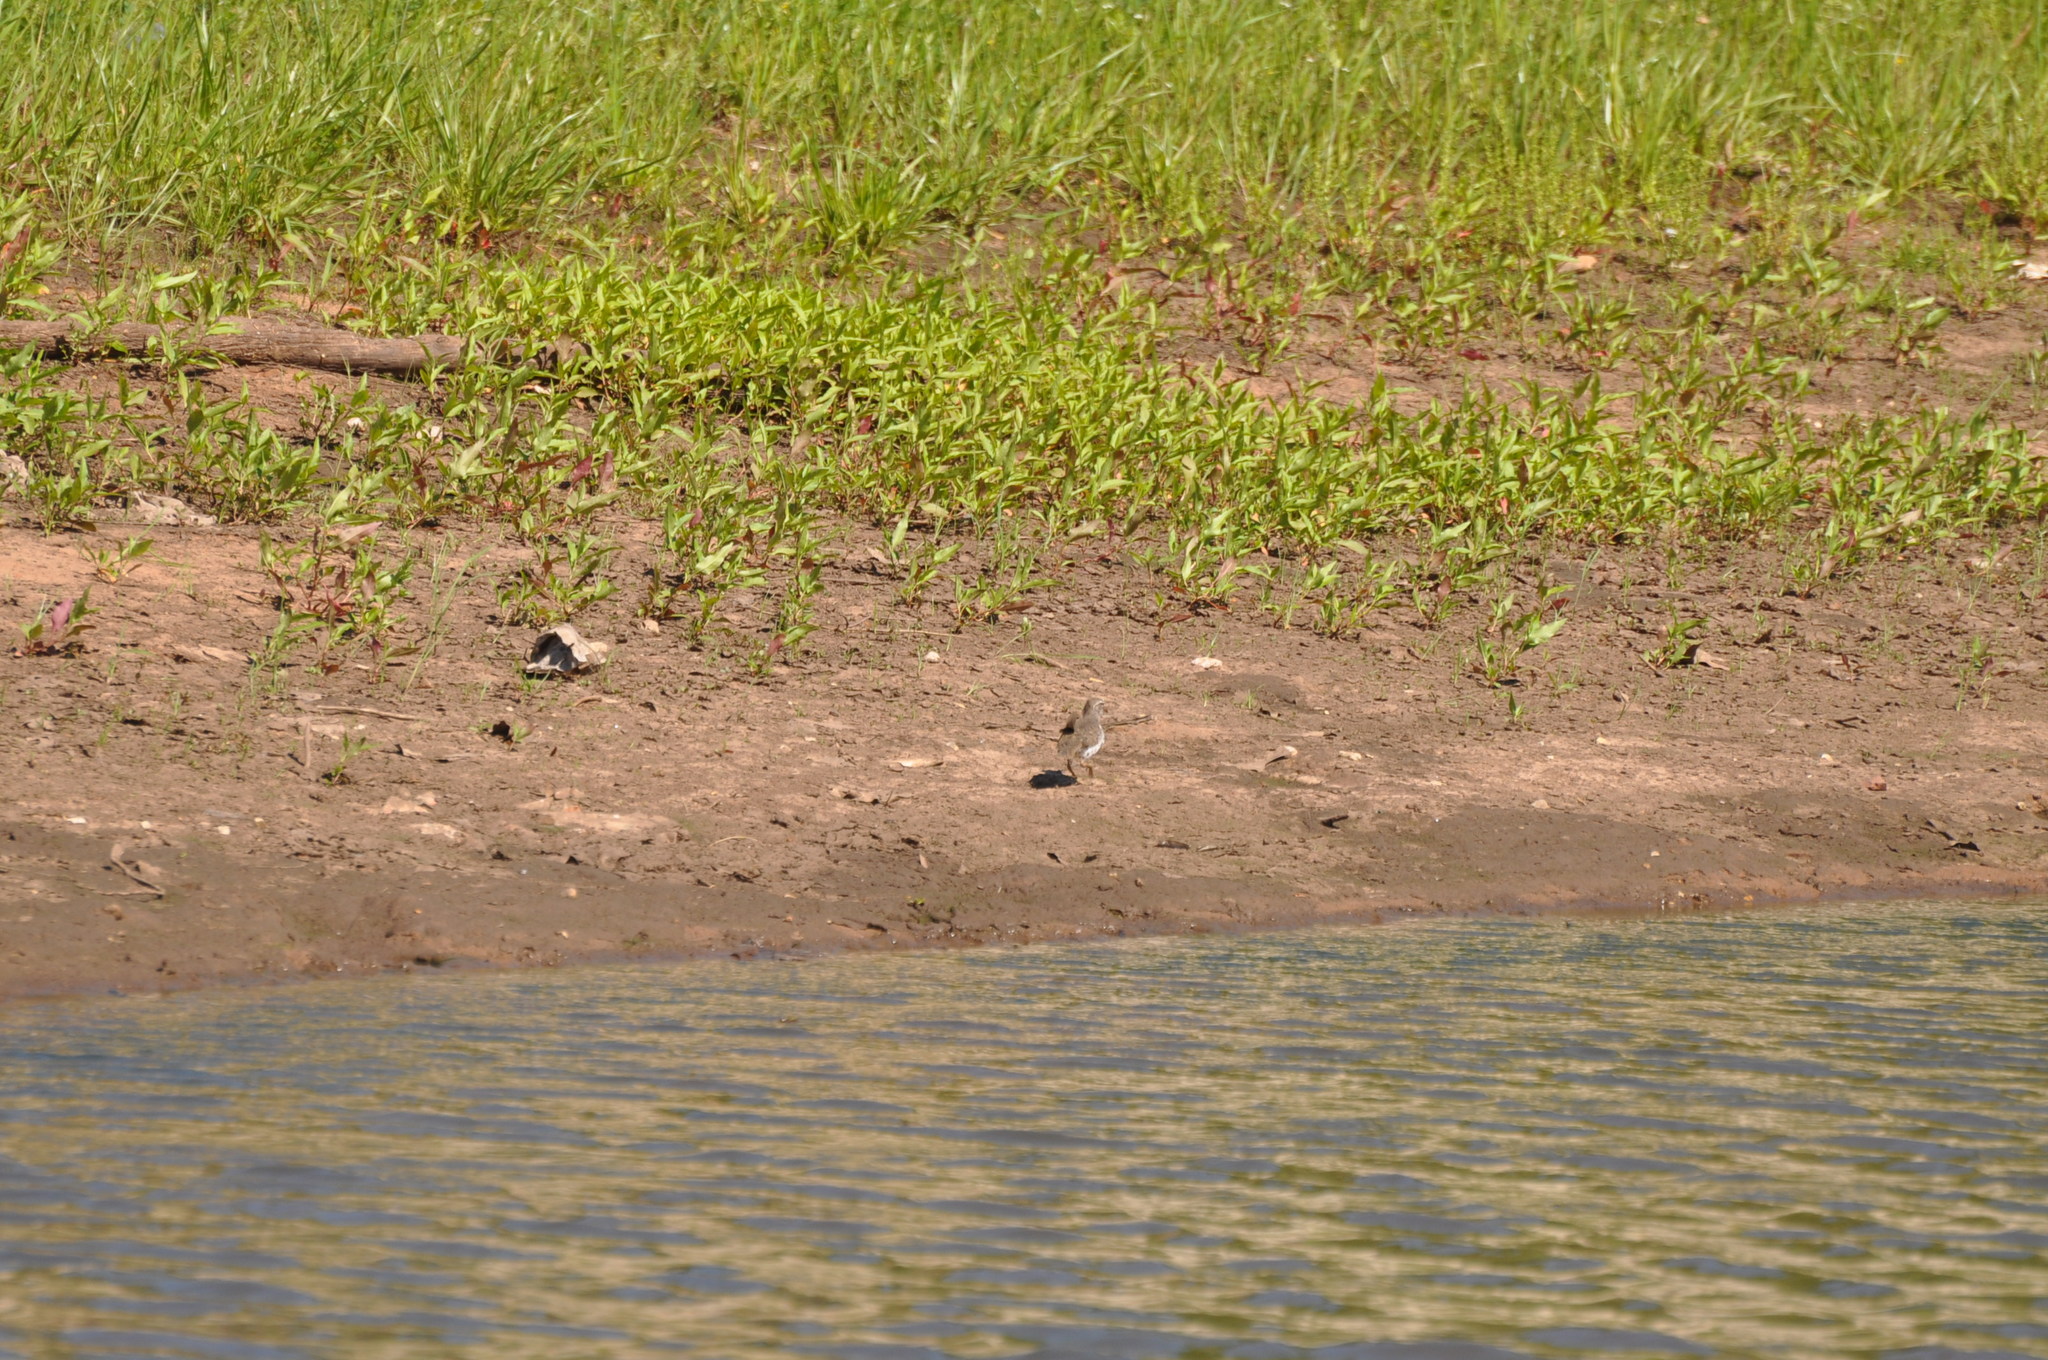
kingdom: Animalia
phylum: Chordata
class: Aves
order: Charadriiformes
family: Scolopacidae
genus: Actitis
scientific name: Actitis macularius
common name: Spotted sandpiper
